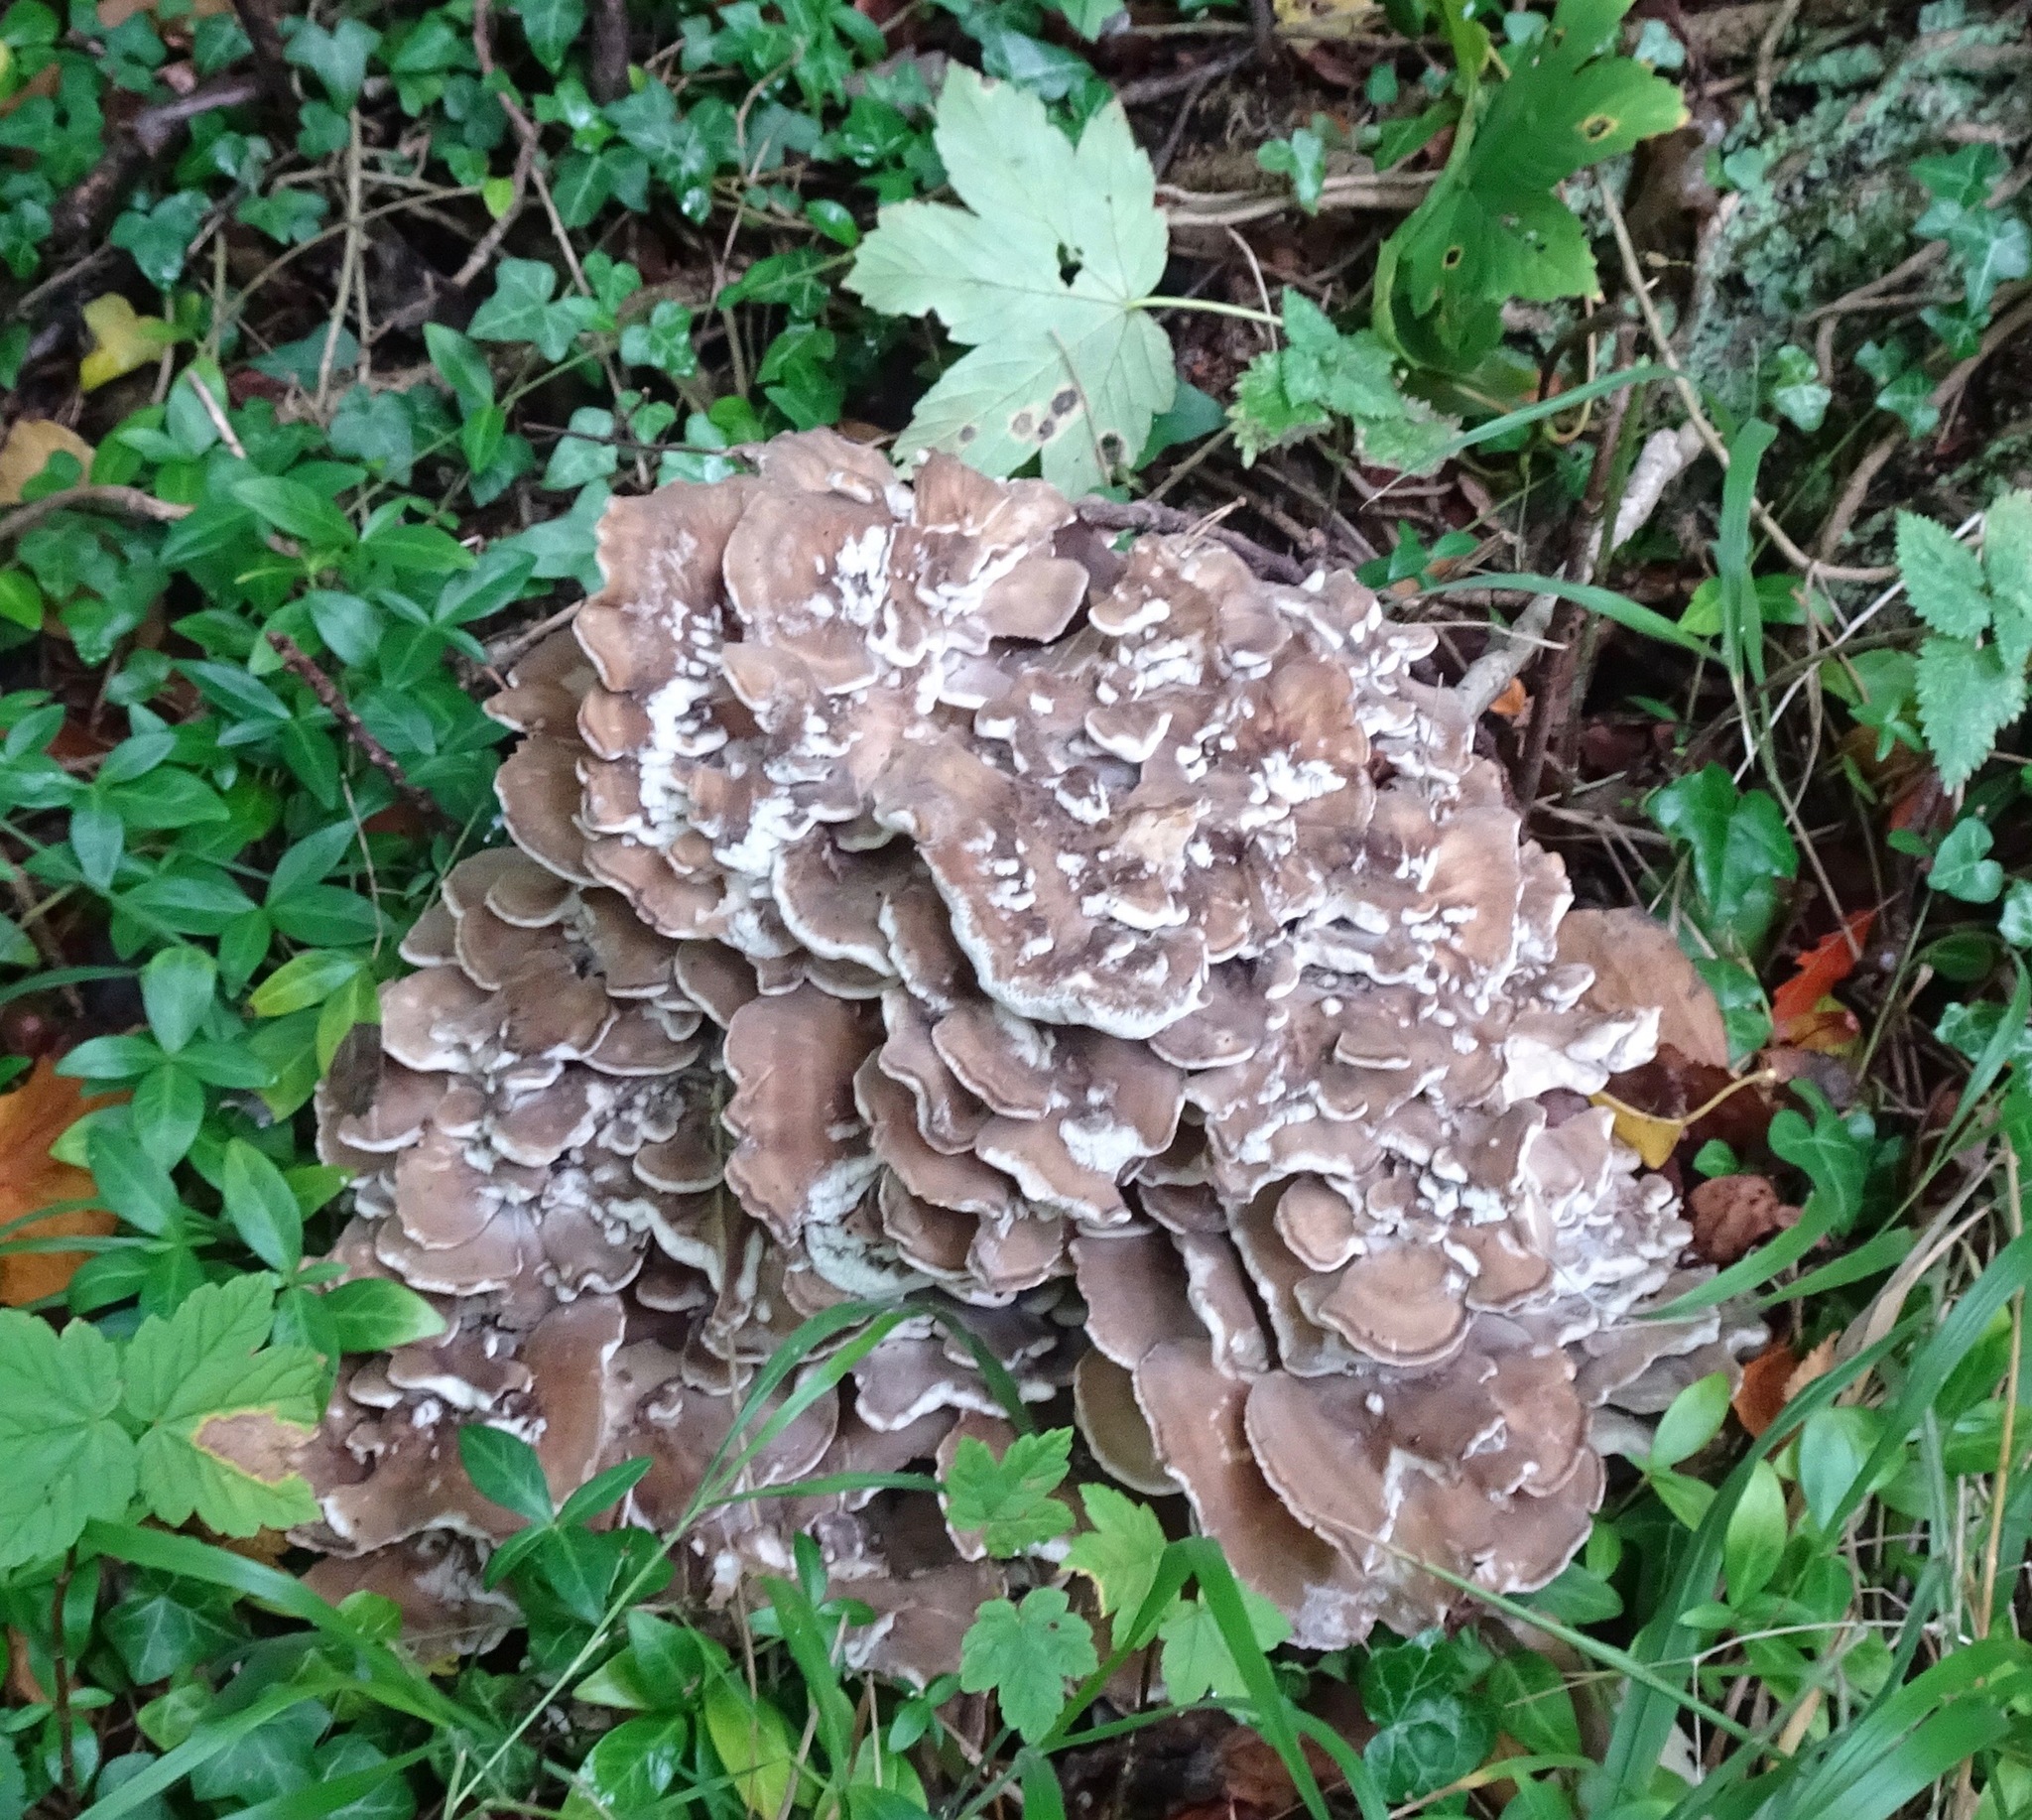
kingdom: Fungi
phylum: Basidiomycota
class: Agaricomycetes
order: Polyporales
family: Grifolaceae
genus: Grifola
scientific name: Grifola frondosa
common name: Hen of the woods
